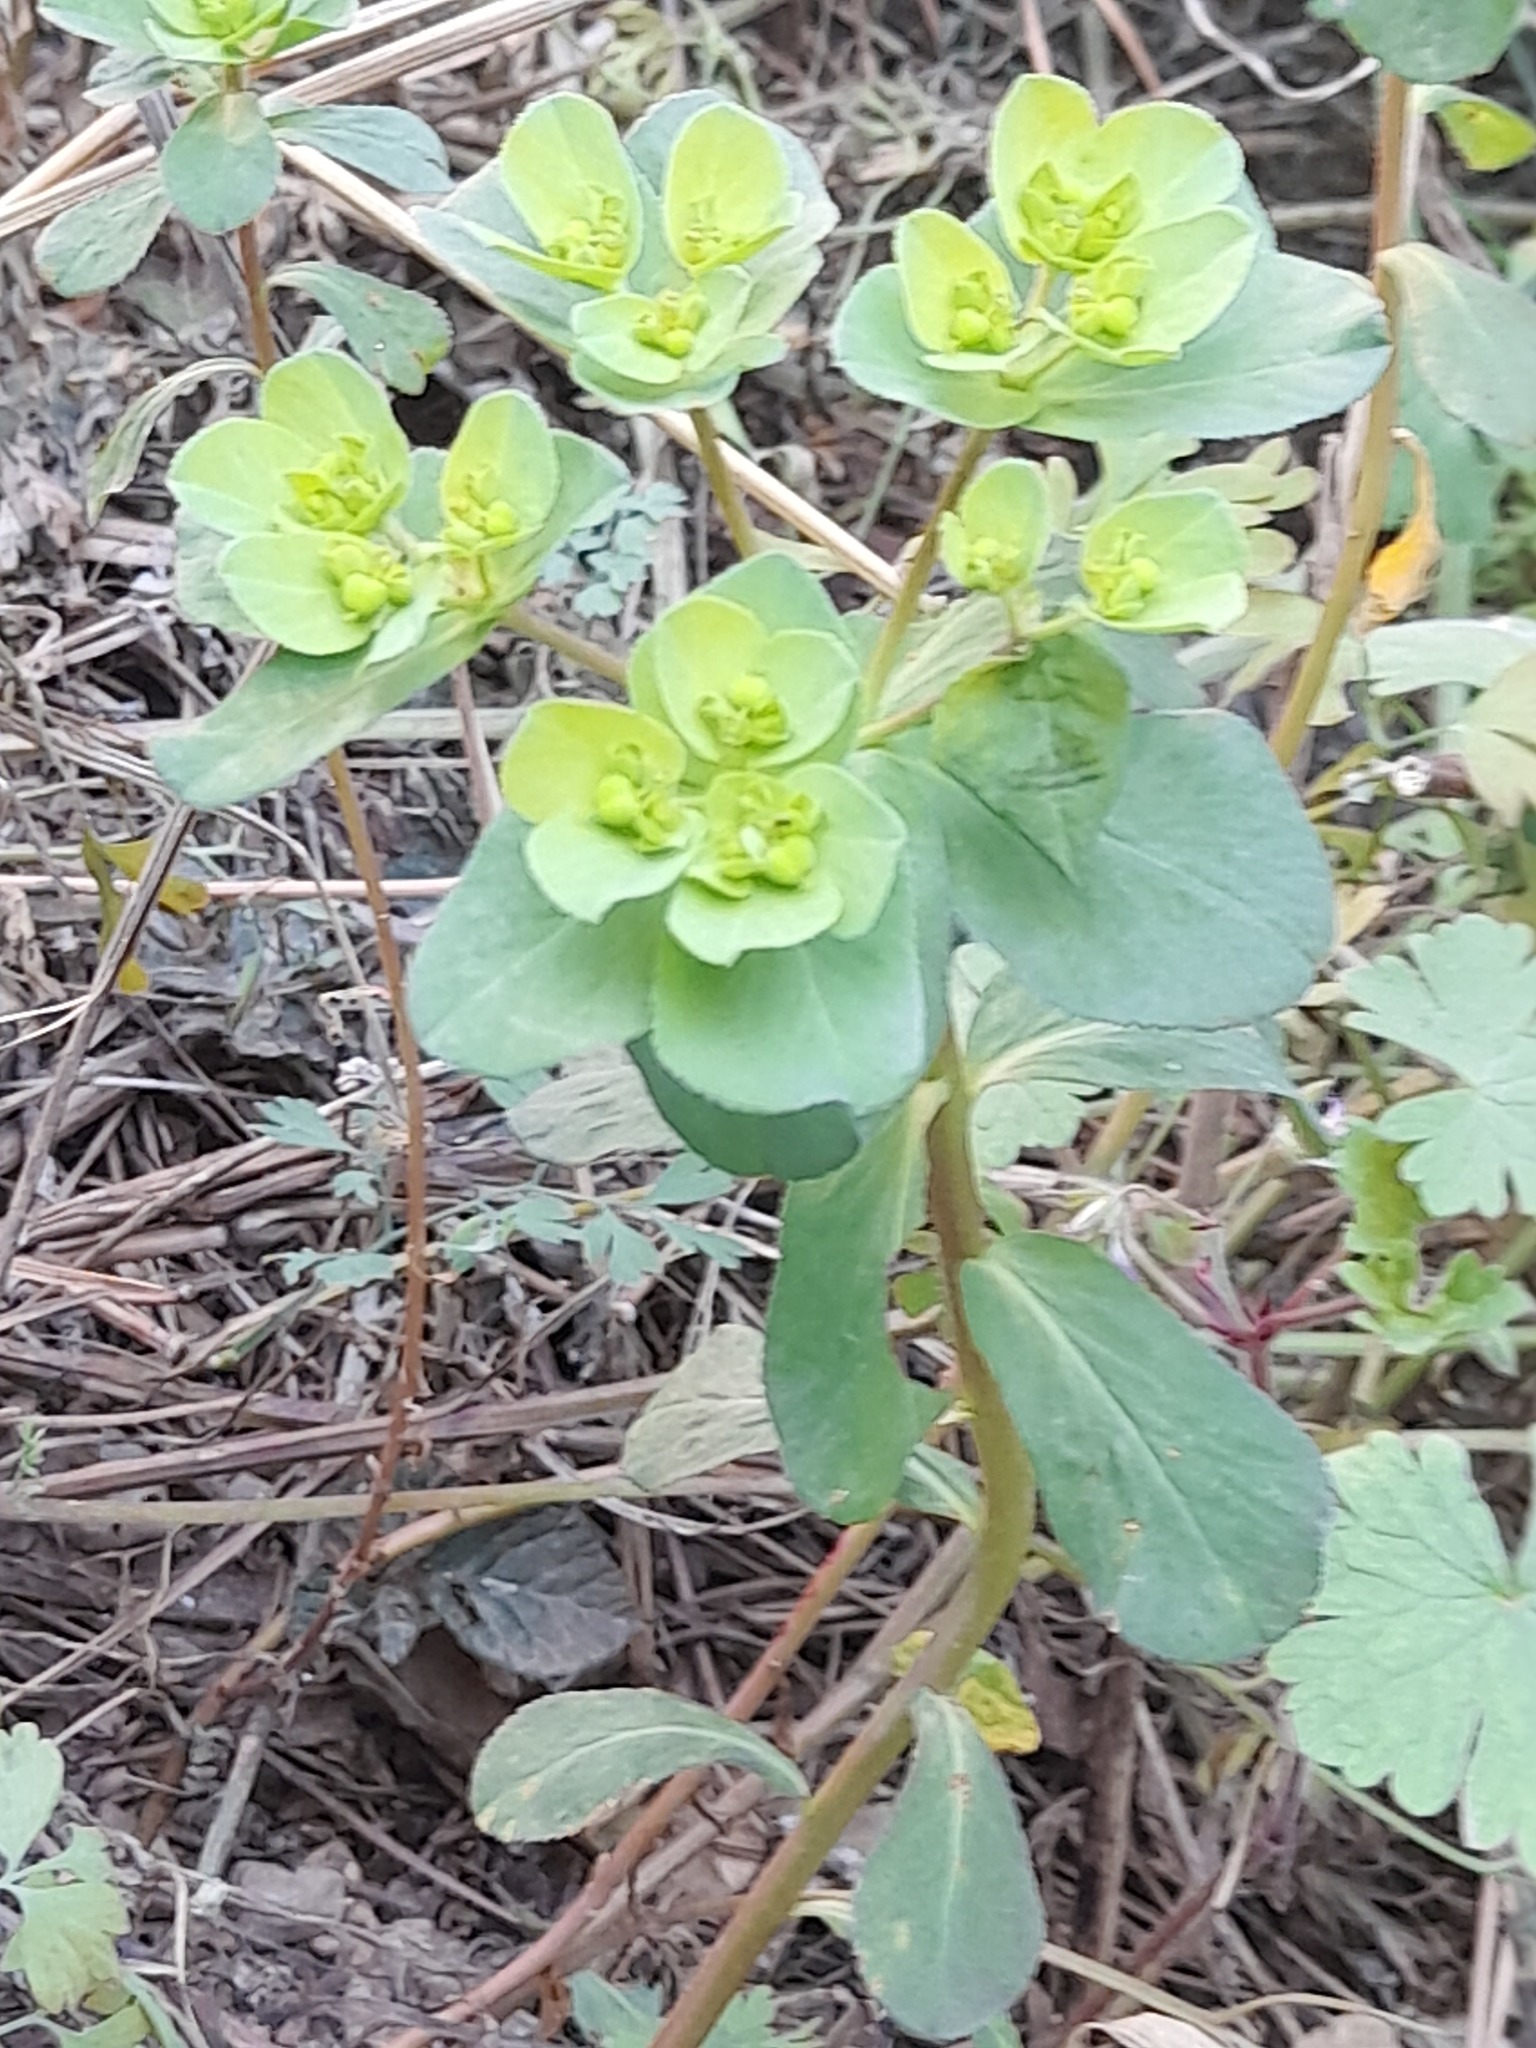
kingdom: Plantae
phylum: Tracheophyta
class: Magnoliopsida
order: Malpighiales
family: Euphorbiaceae
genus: Euphorbia
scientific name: Euphorbia helioscopia
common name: Sun spurge
